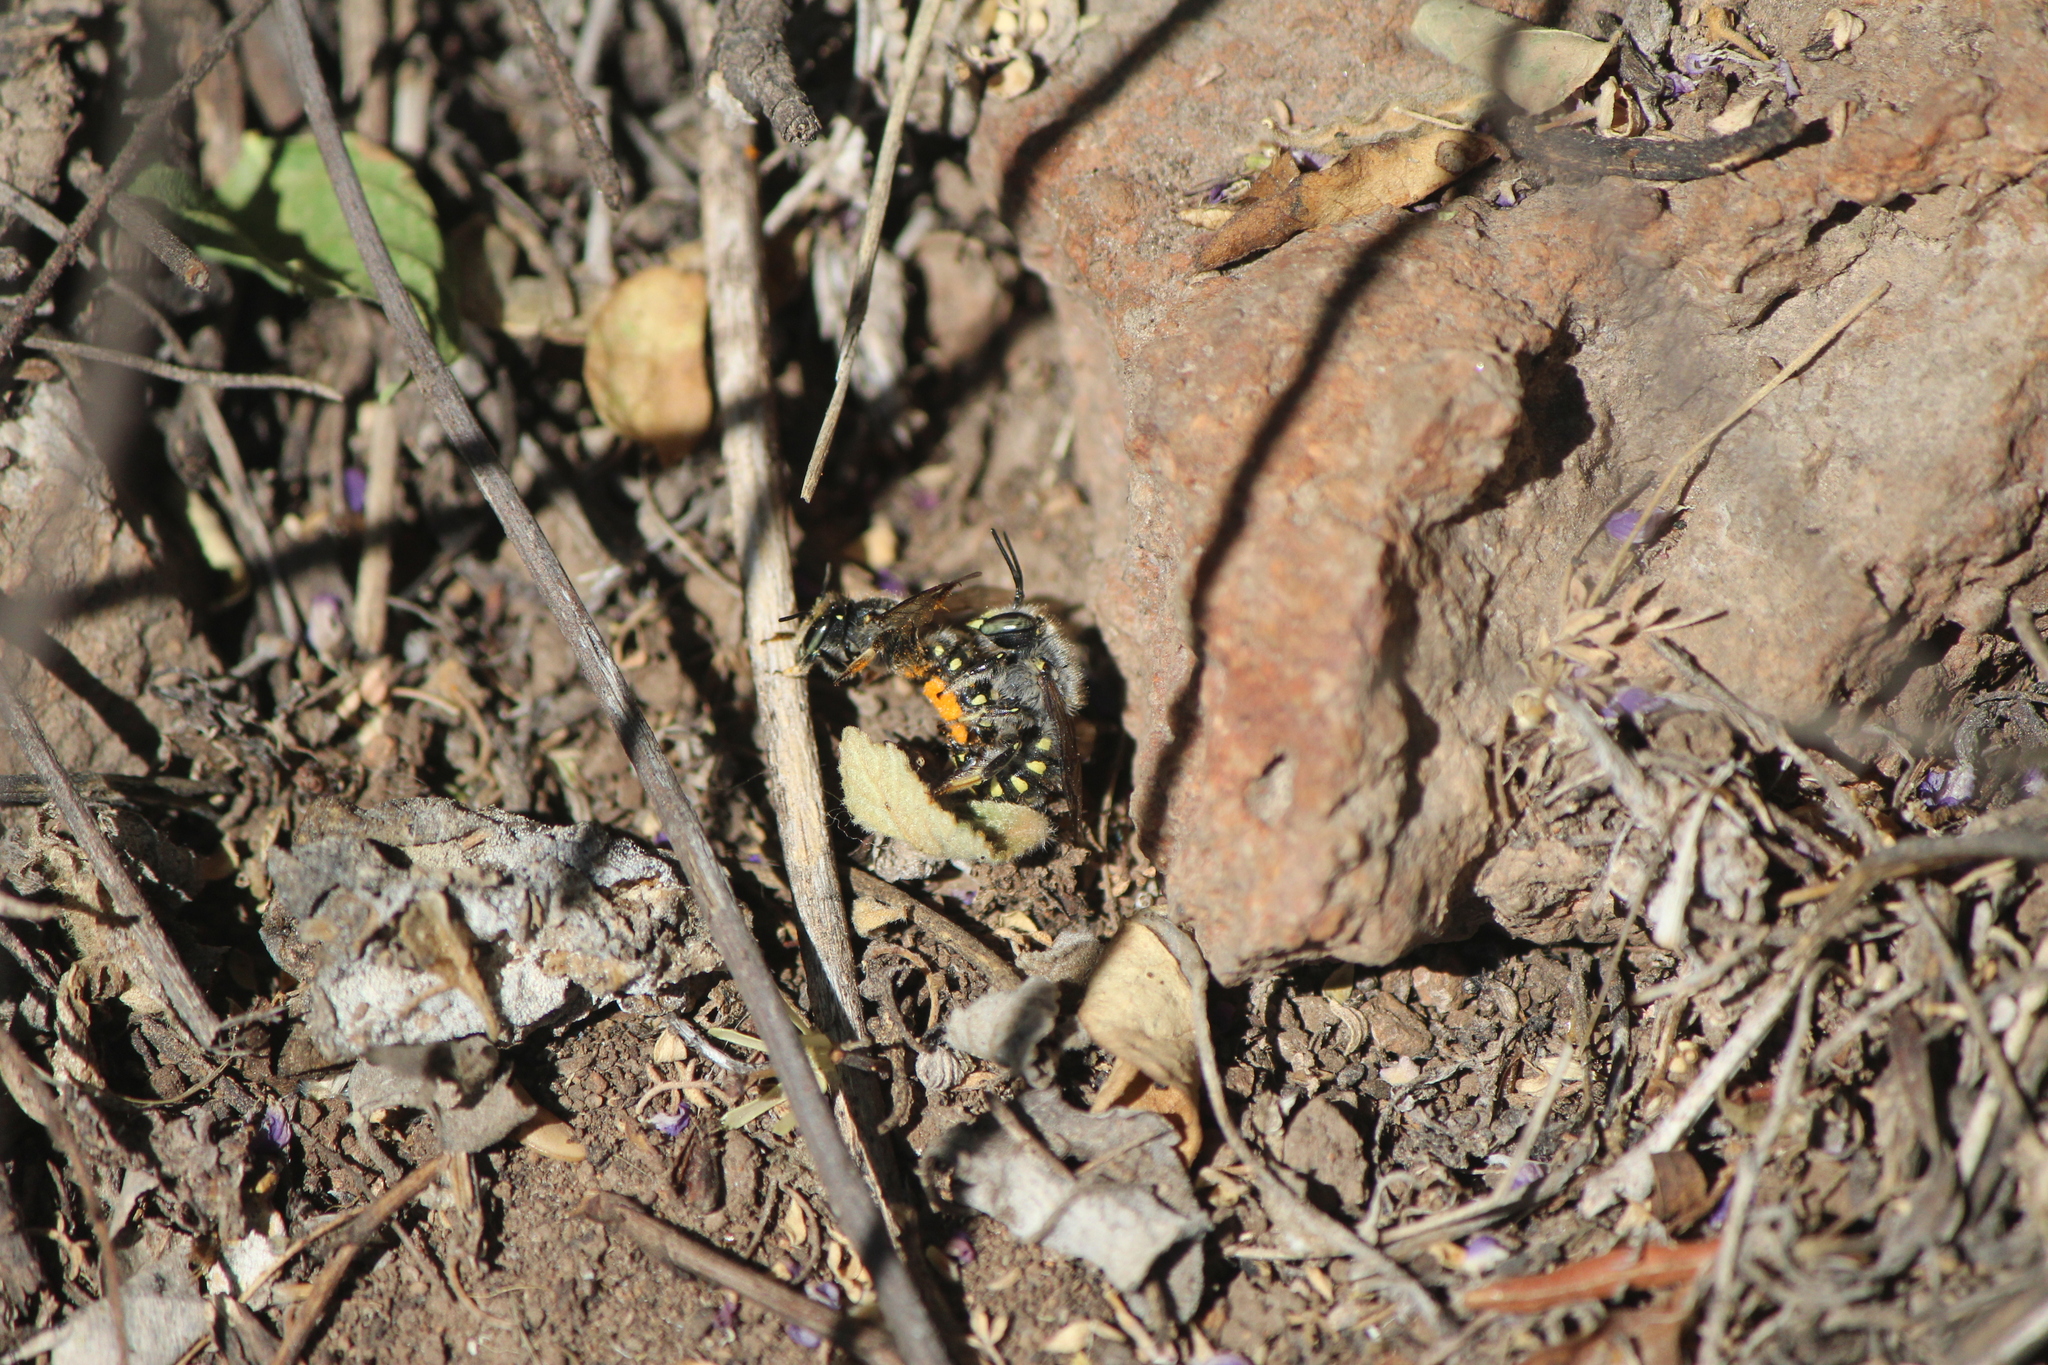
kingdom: Animalia
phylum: Arthropoda
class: Insecta
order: Hymenoptera
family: Megachilidae
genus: Anthidium
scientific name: Anthidium maculosum
